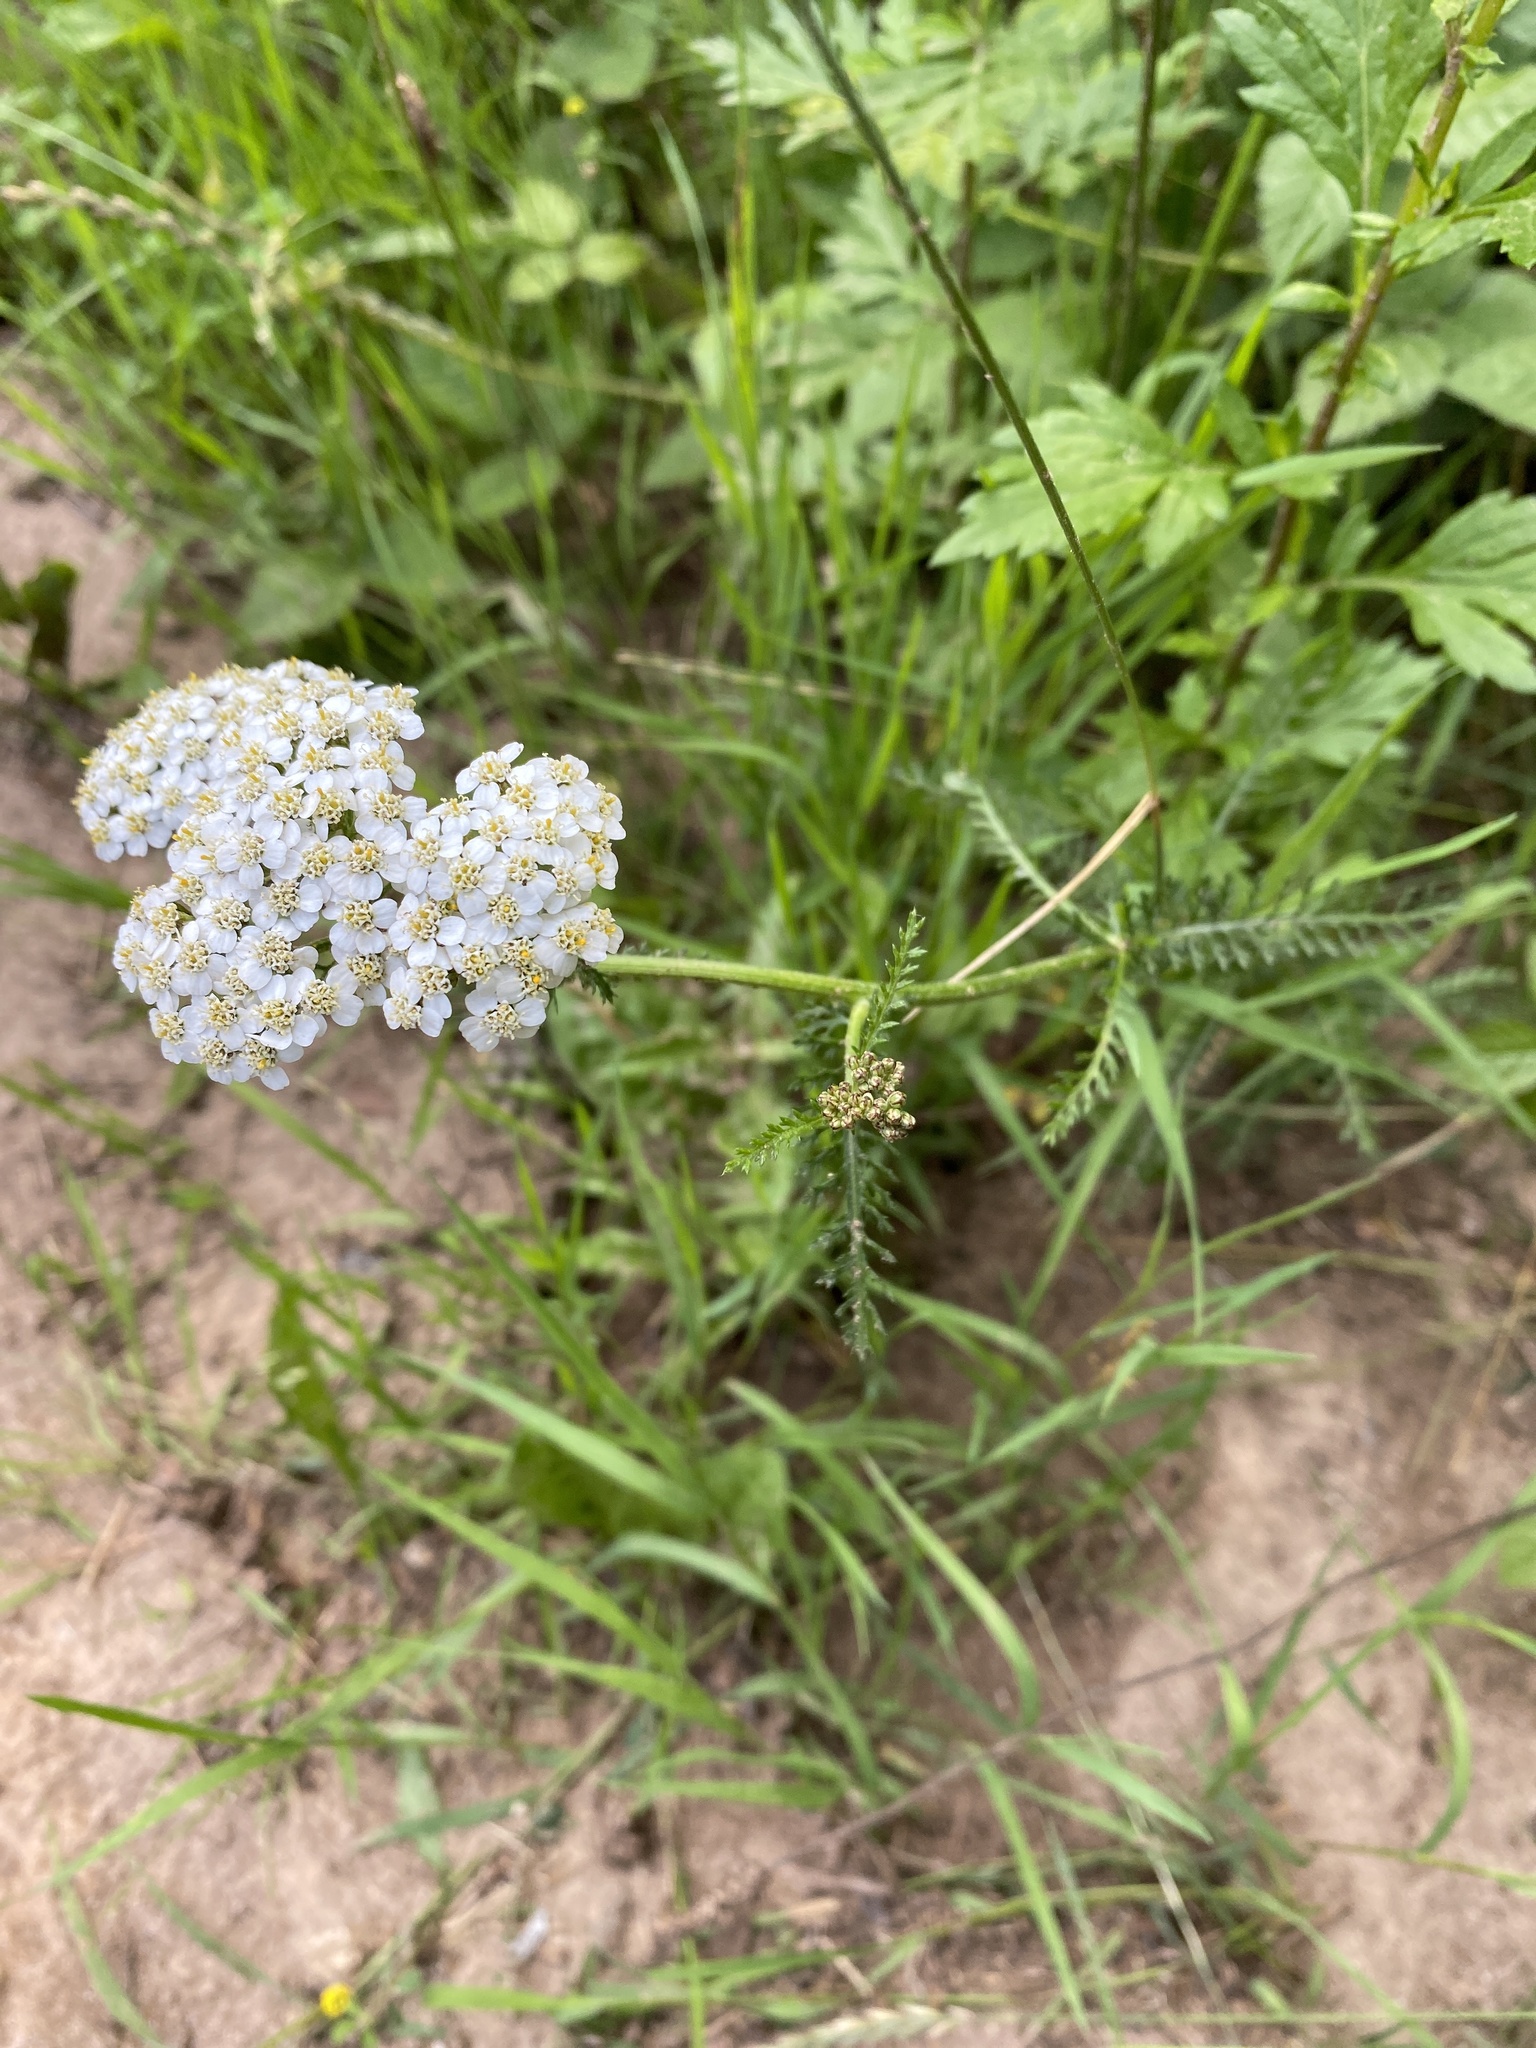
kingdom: Plantae
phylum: Tracheophyta
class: Magnoliopsida
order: Asterales
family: Asteraceae
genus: Achillea
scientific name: Achillea millefolium
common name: Yarrow
